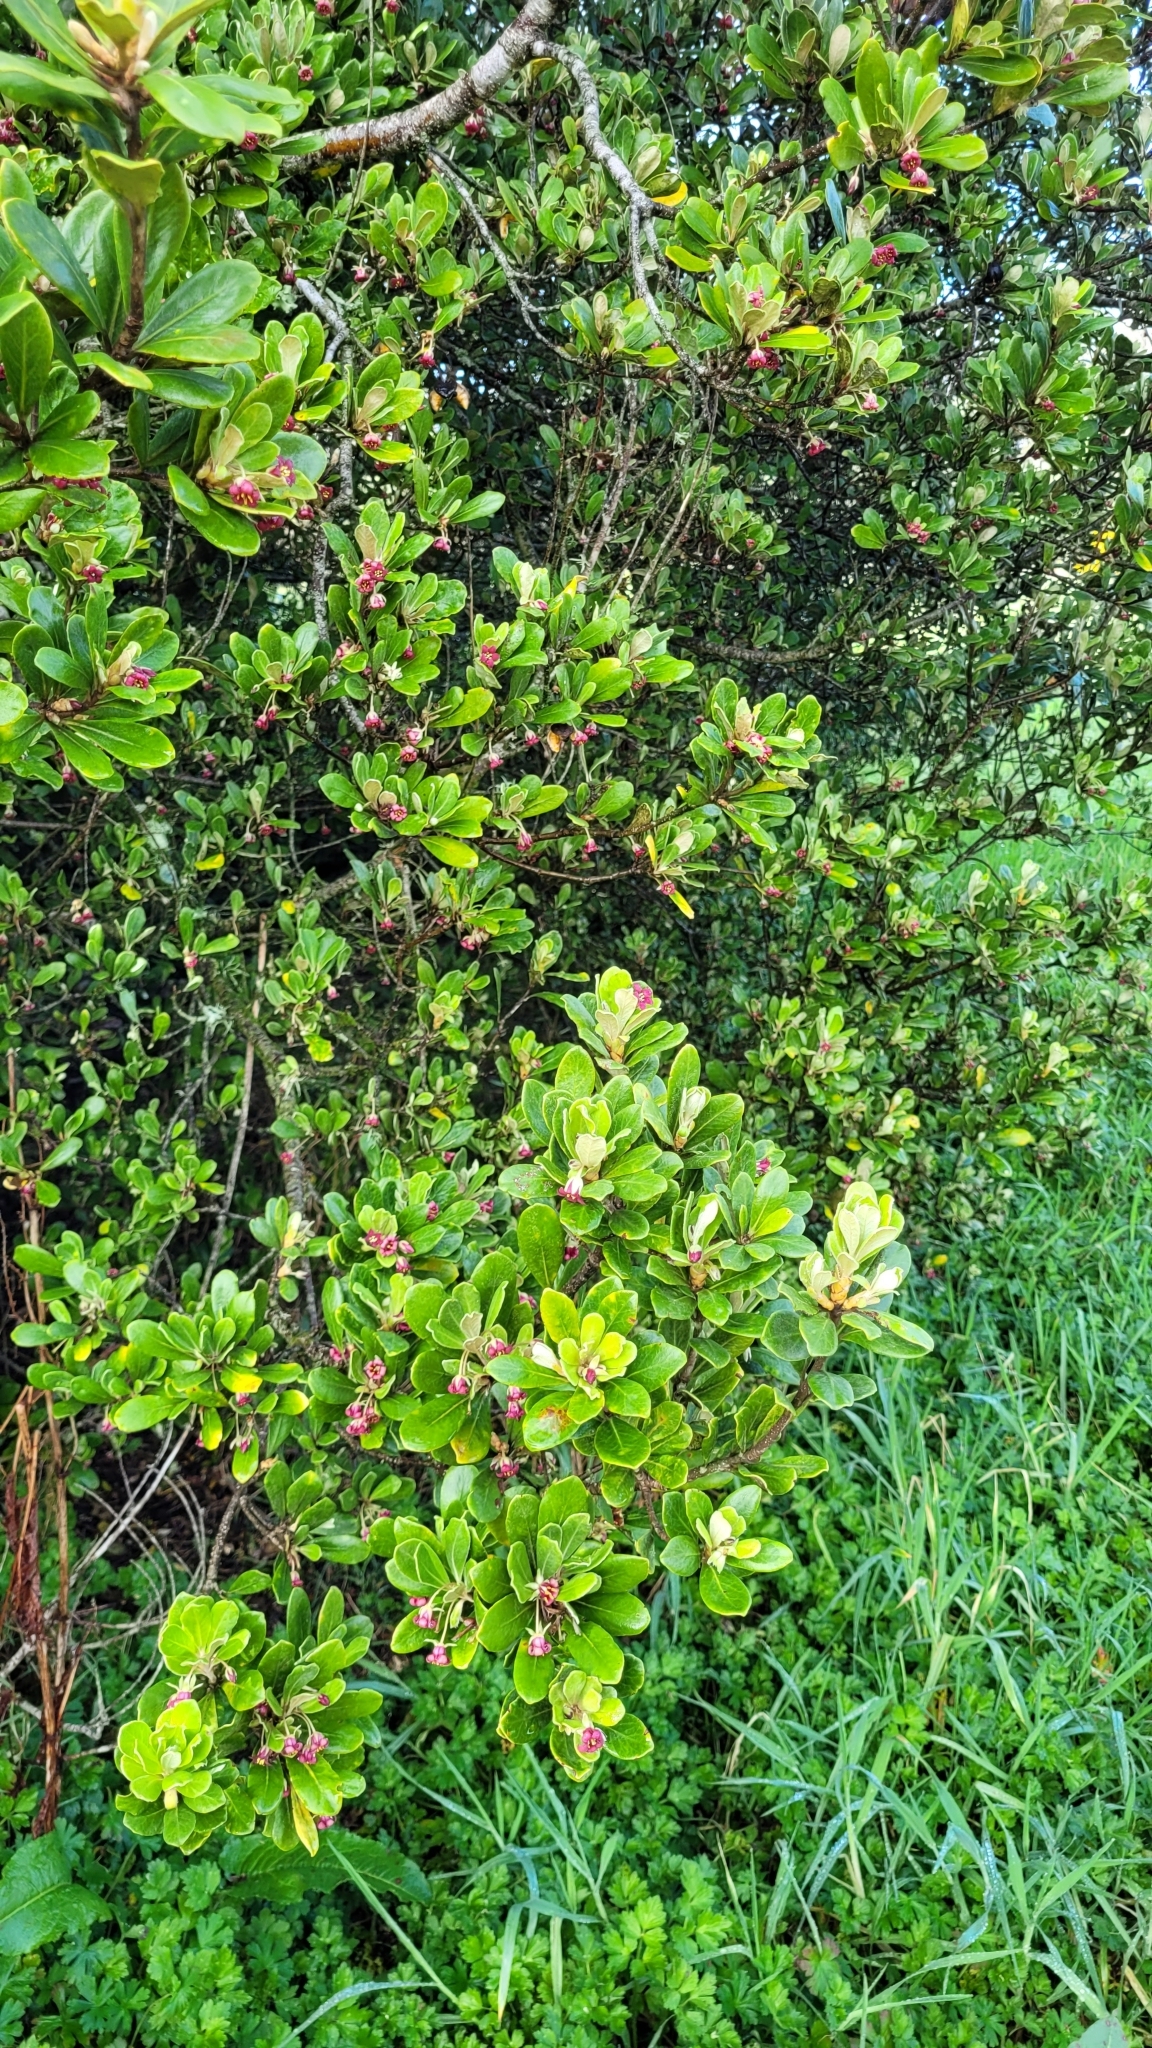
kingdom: Plantae
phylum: Tracheophyta
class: Magnoliopsida
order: Apiales
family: Pittosporaceae
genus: Pittosporum
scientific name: Pittosporum crassifolium
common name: Karo
